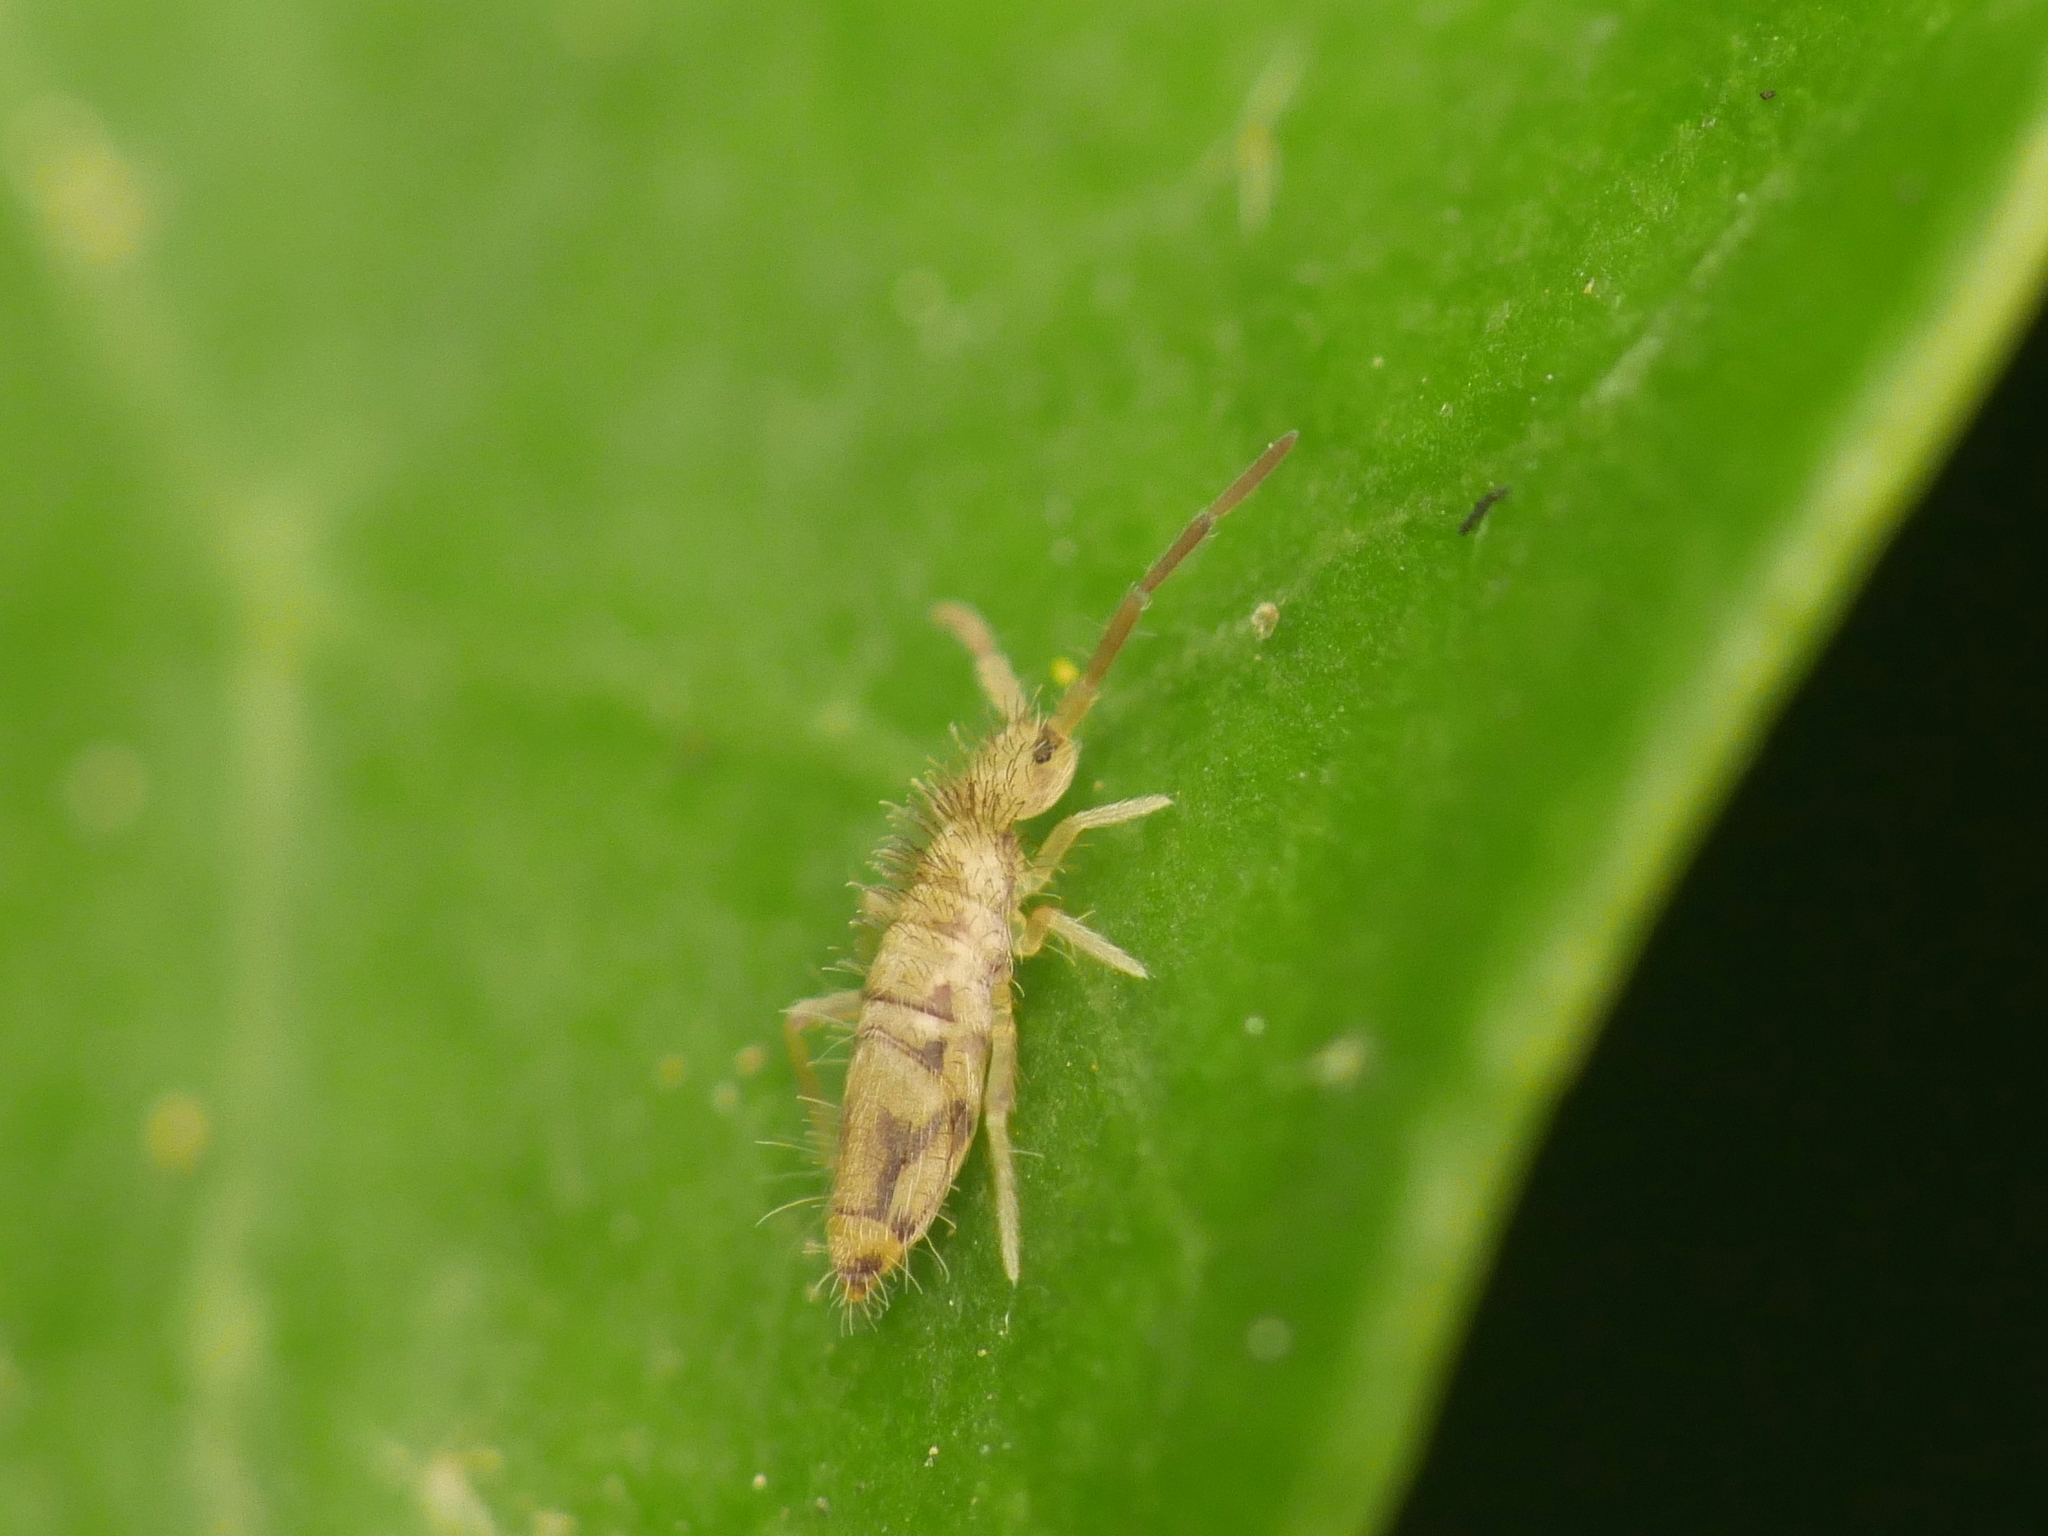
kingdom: Animalia
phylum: Arthropoda
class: Collembola
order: Entomobryomorpha
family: Entomobryidae
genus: Entomobrya
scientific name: Entomobrya nivalis
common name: Cosmopolitan springtail
